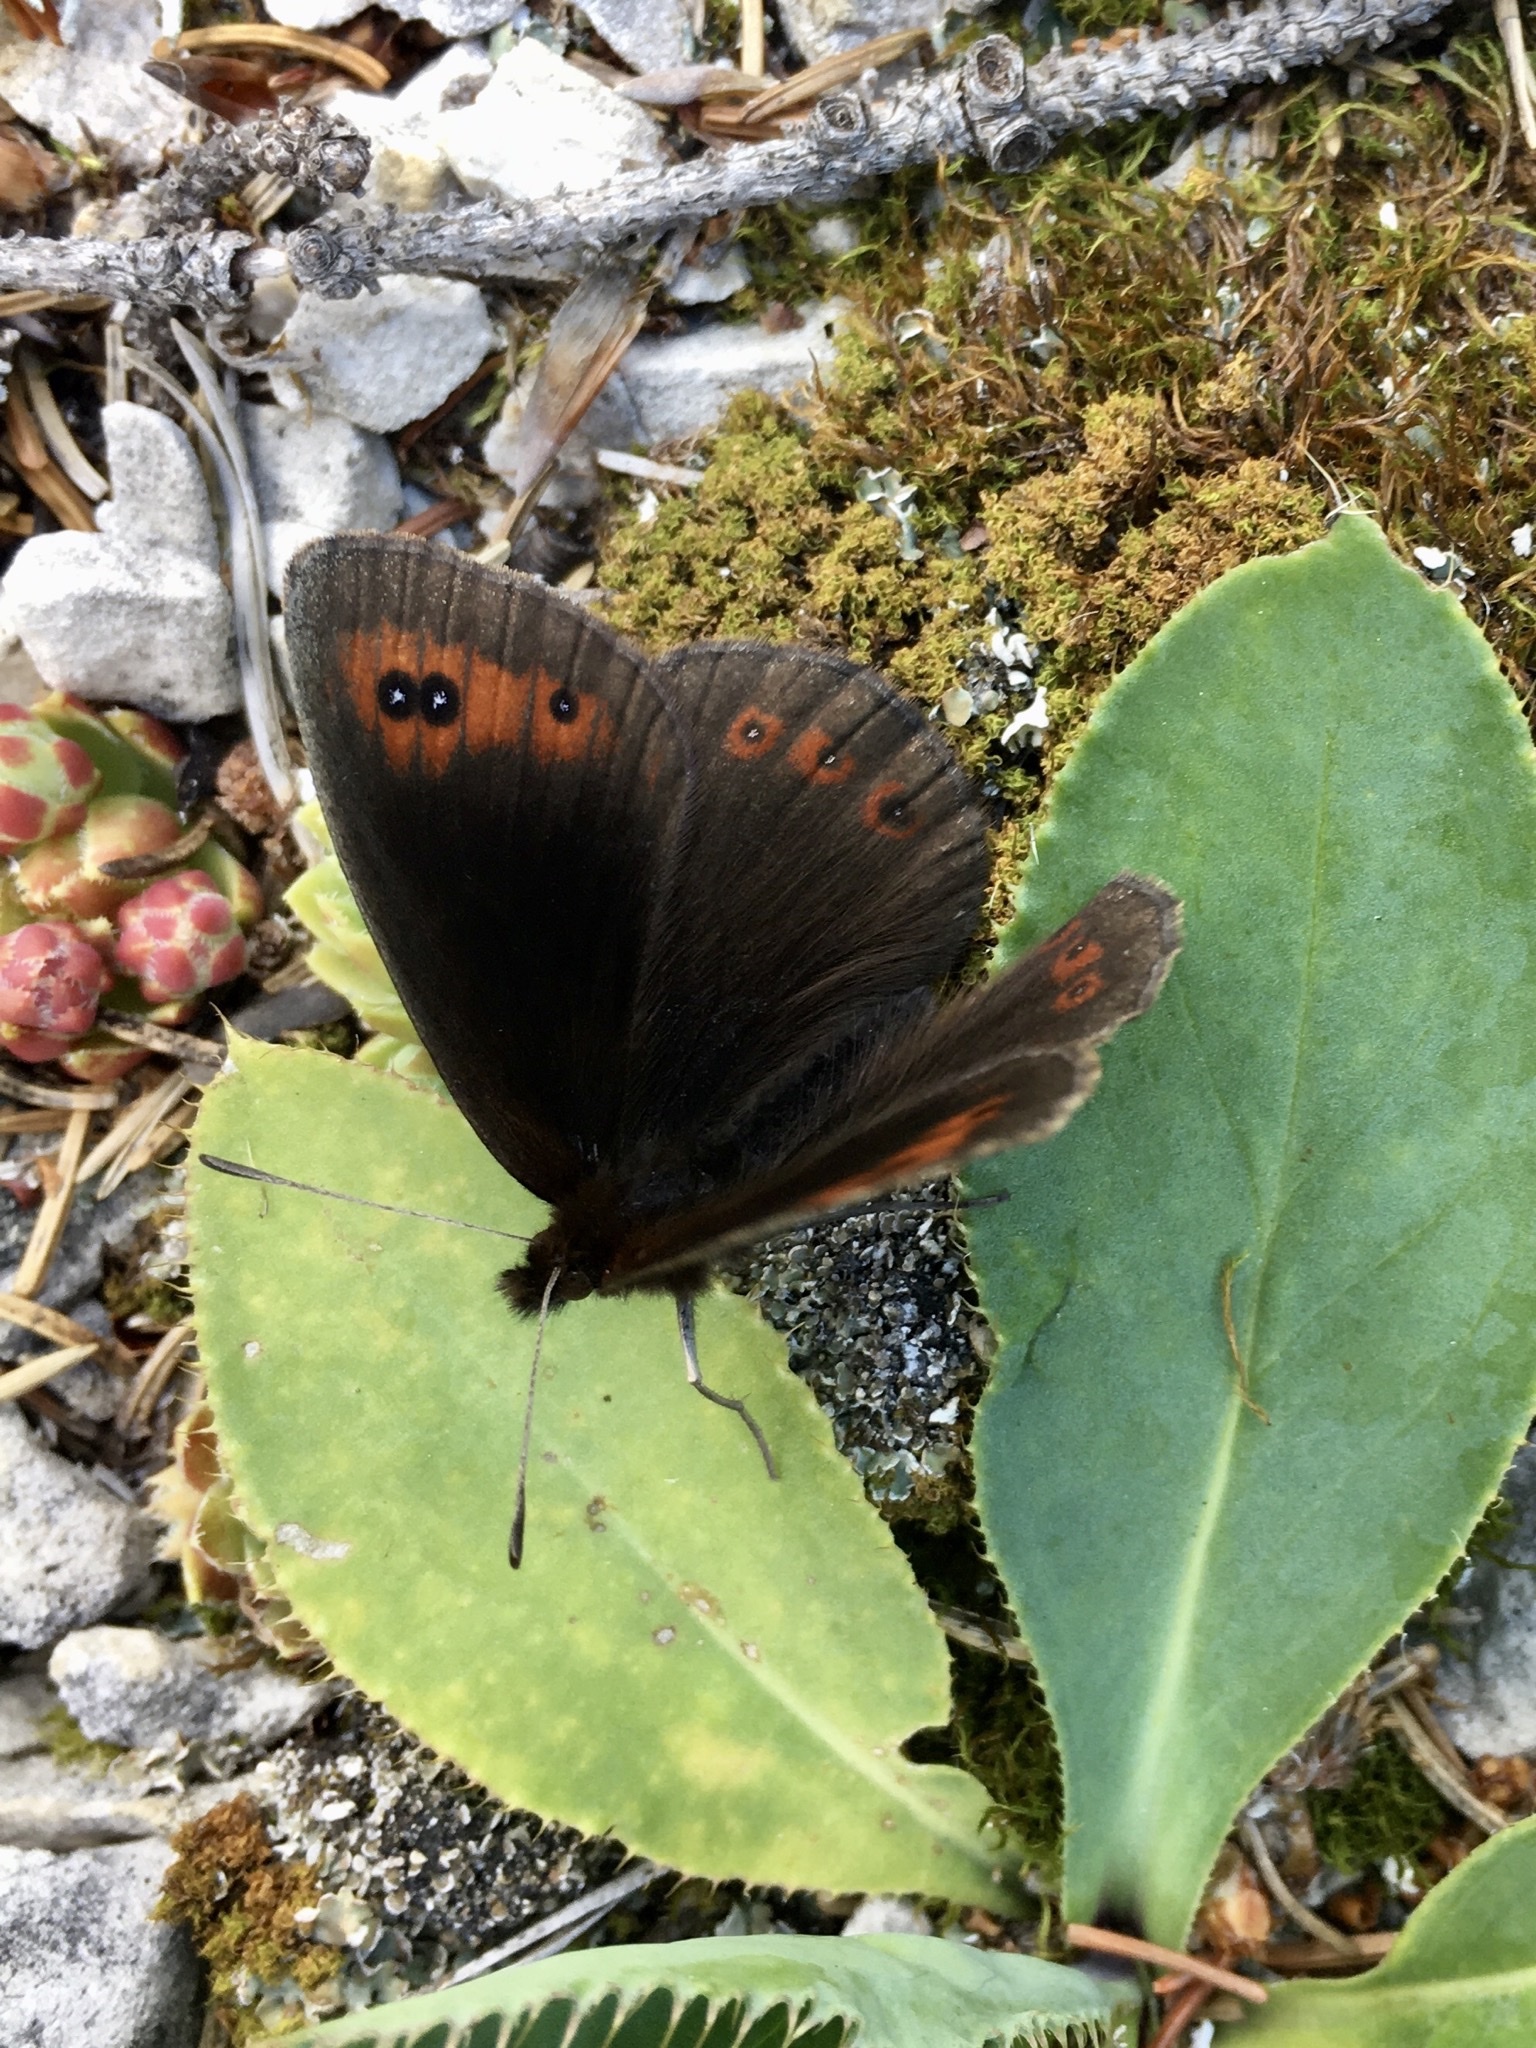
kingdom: Animalia
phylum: Arthropoda
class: Insecta
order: Lepidoptera
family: Nymphalidae
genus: Erebia
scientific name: Erebia aethiops
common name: Scotch argus
